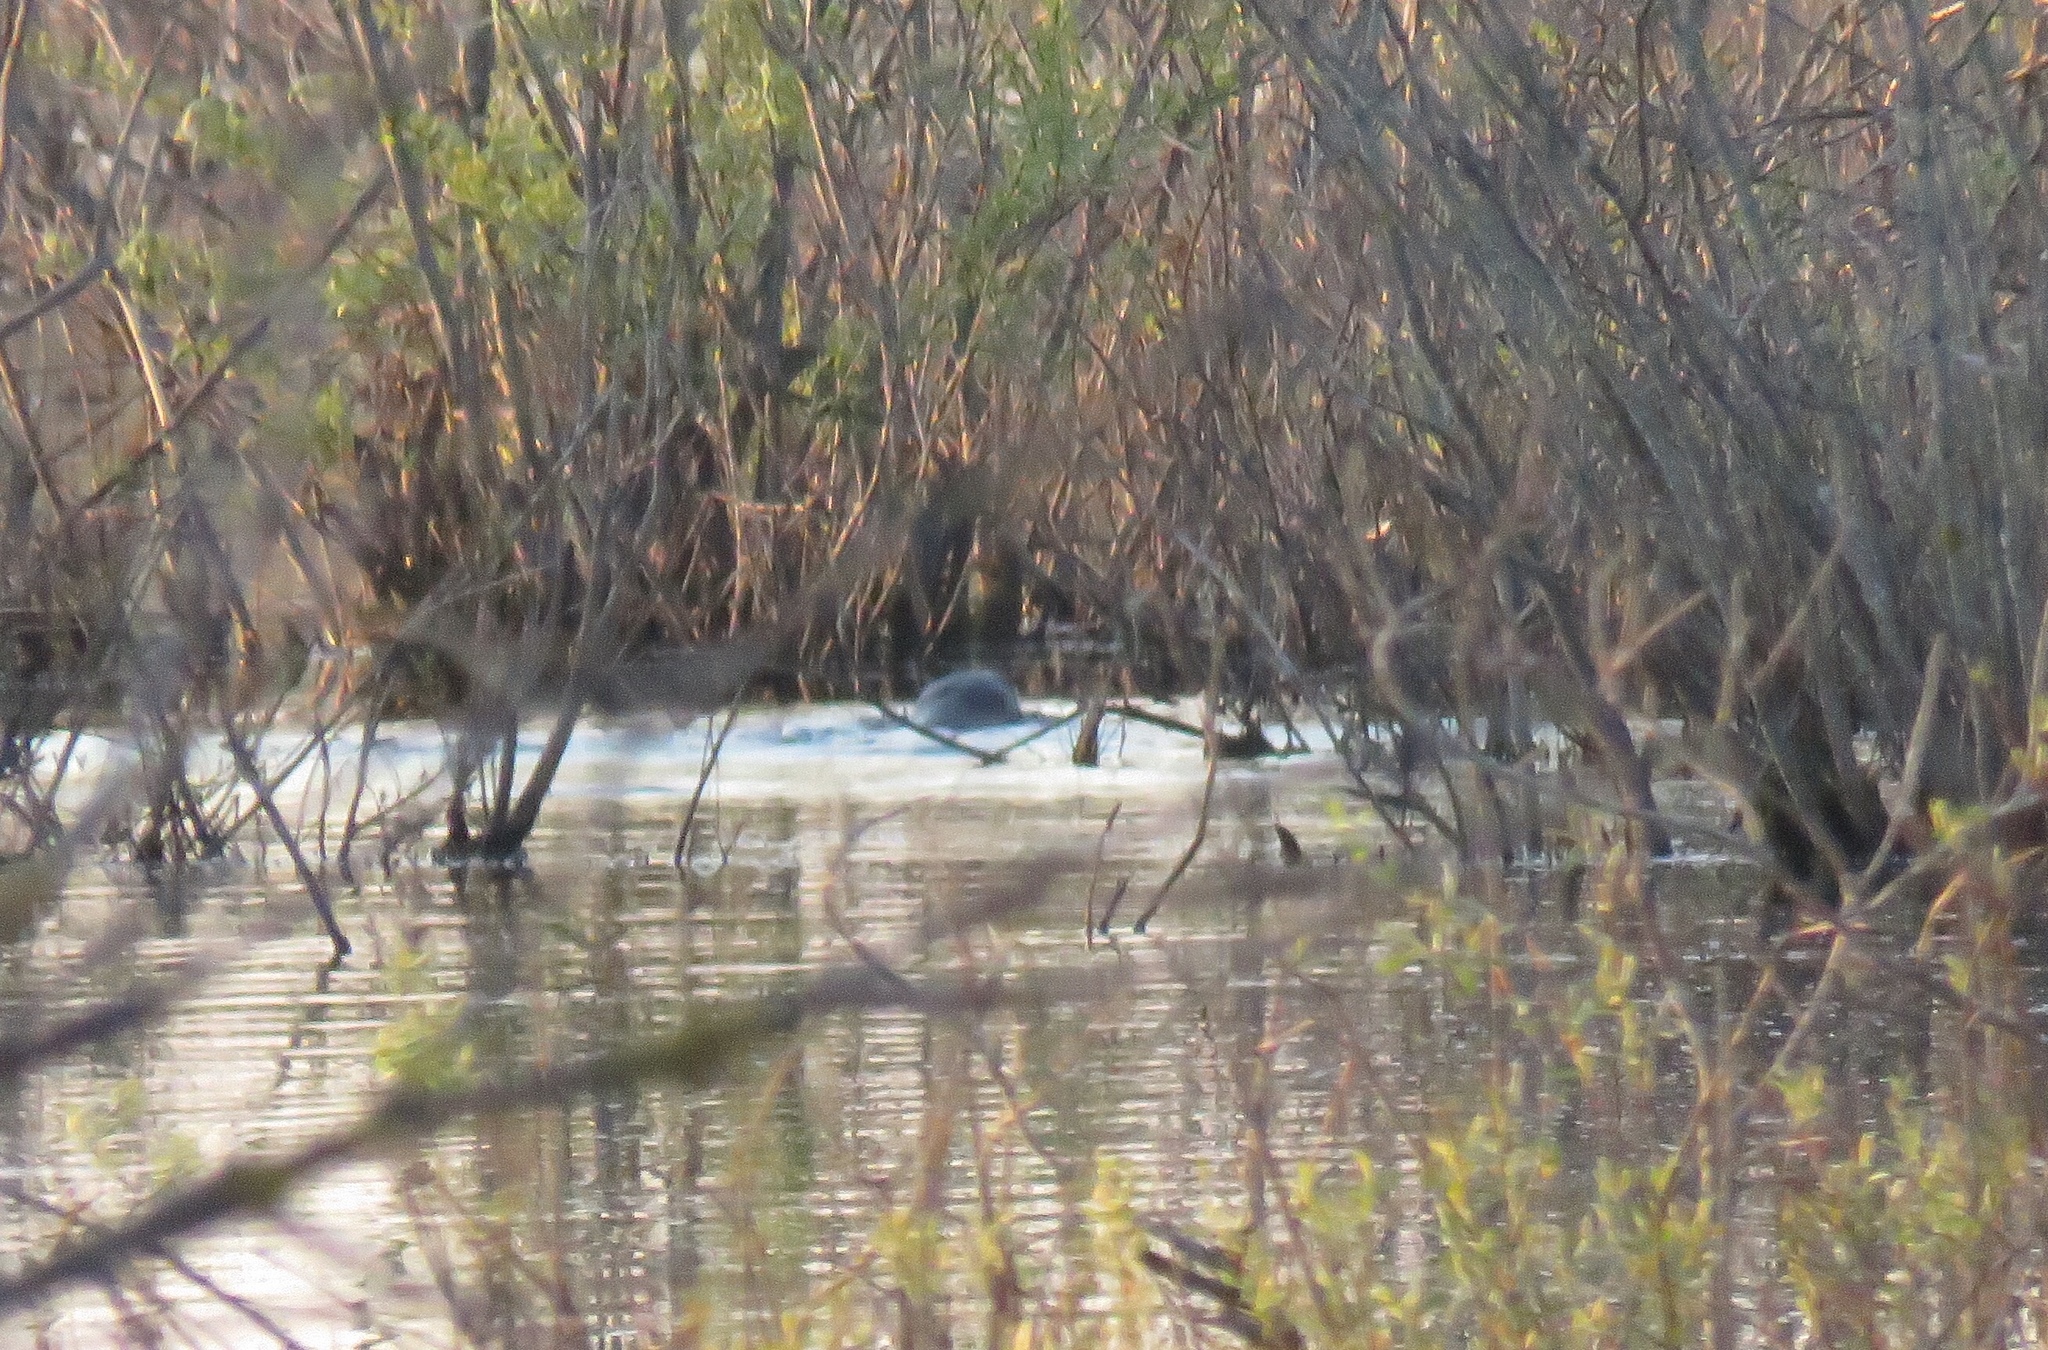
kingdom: Animalia
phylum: Chordata
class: Mammalia
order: Carnivora
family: Mustelidae
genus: Lontra
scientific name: Lontra canadensis
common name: North american river otter
